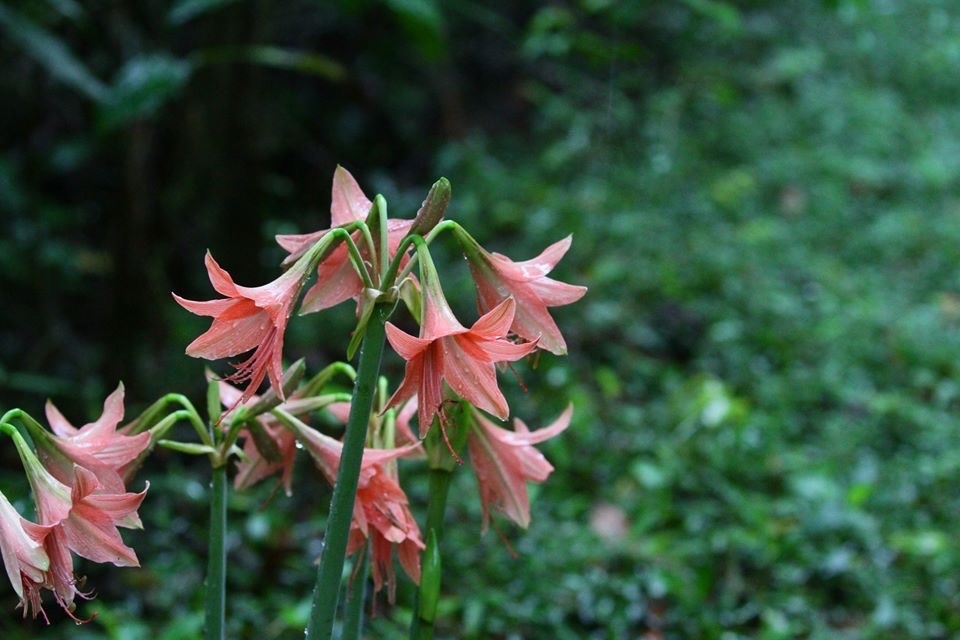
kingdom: Plantae
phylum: Tracheophyta
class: Liliopsida
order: Asparagales
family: Amaryllidaceae
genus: Hippeastrum
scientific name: Hippeastrum stylosum
